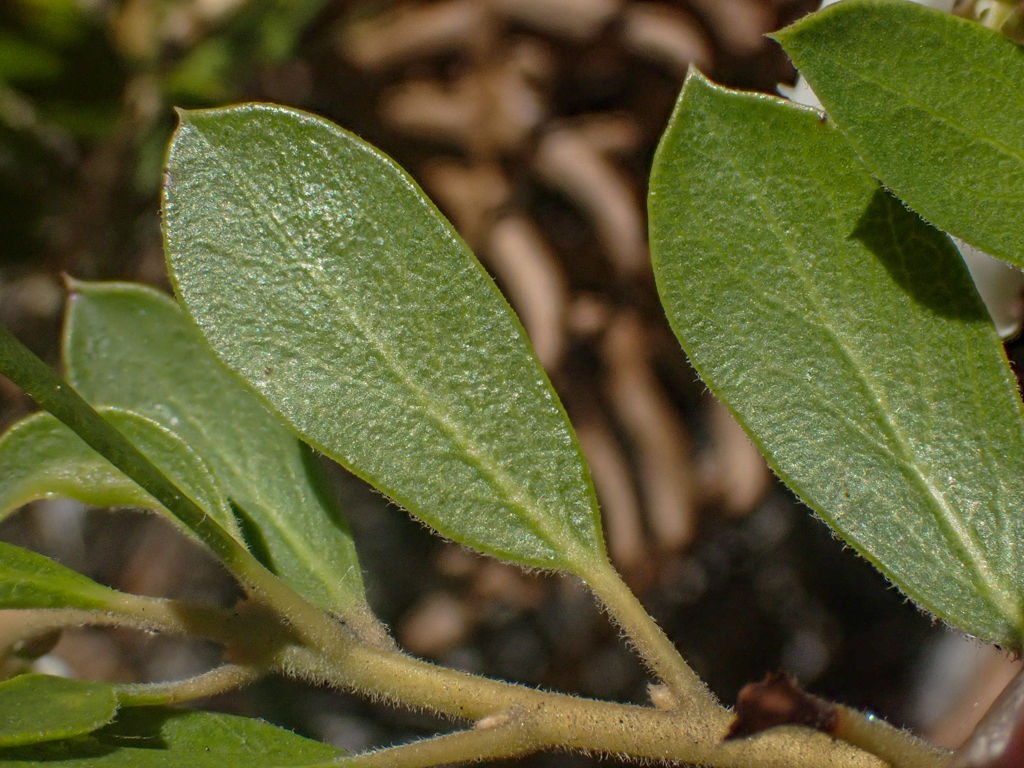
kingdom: Plantae
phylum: Tracheophyta
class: Magnoliopsida
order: Ericales
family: Ericaceae
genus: Arctostaphylos
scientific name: Arctostaphylos nevadensis
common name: Pinemat manzanita
